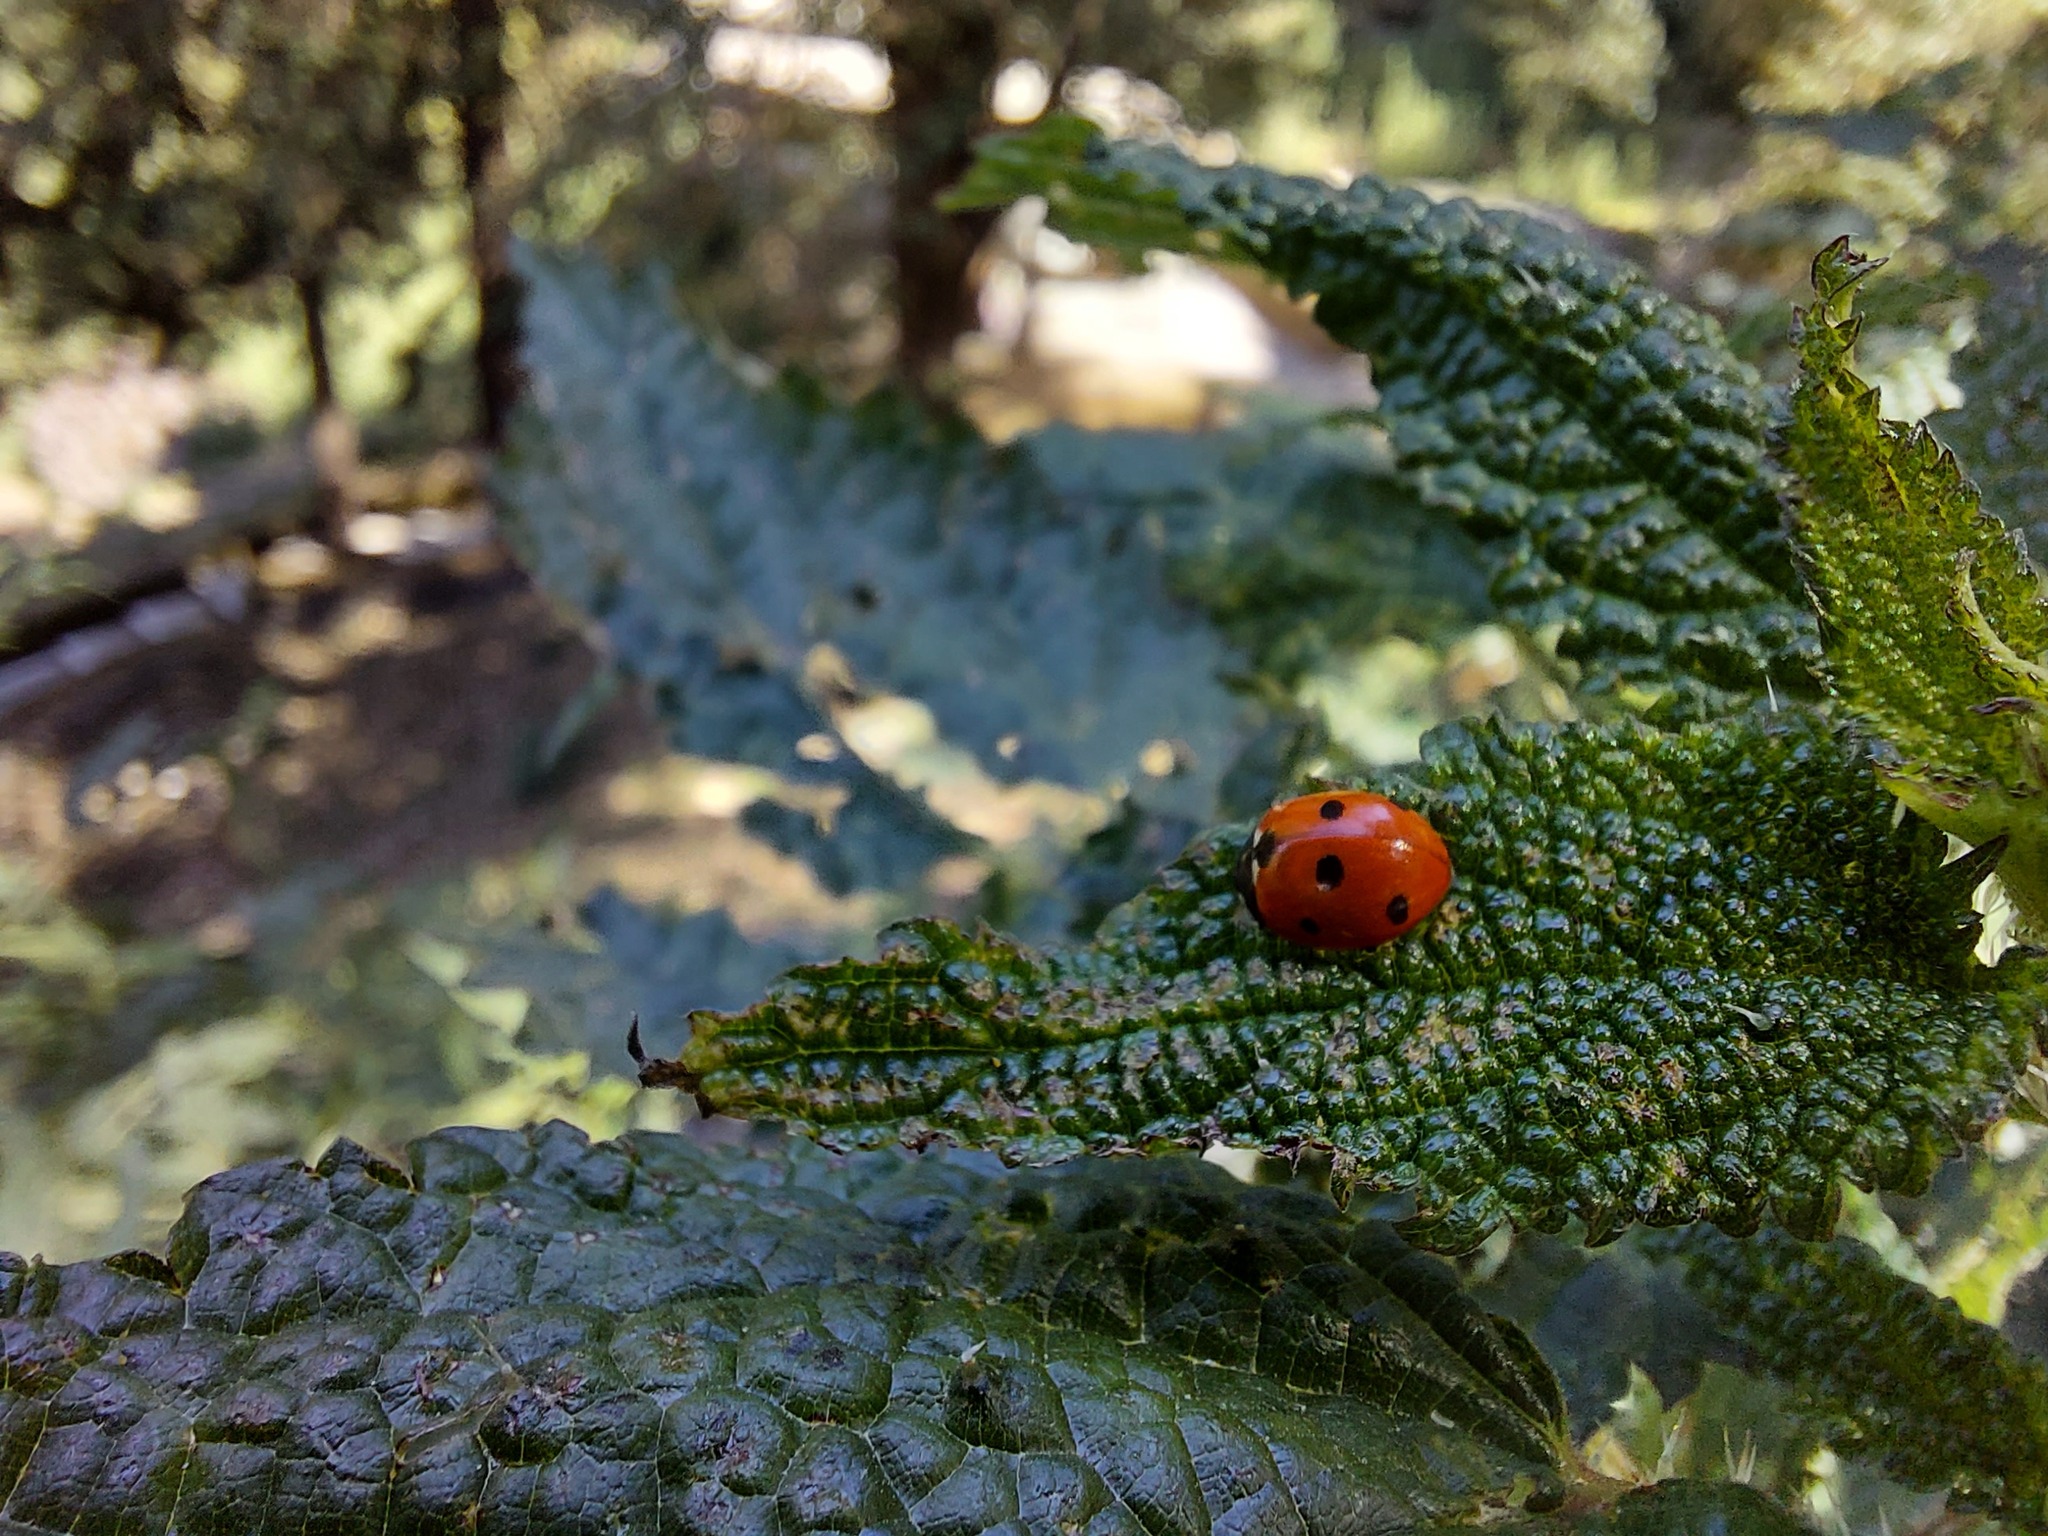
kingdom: Animalia
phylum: Arthropoda
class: Insecta
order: Coleoptera
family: Coccinellidae
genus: Coccinella
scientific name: Coccinella septempunctata
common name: Sevenspotted lady beetle
